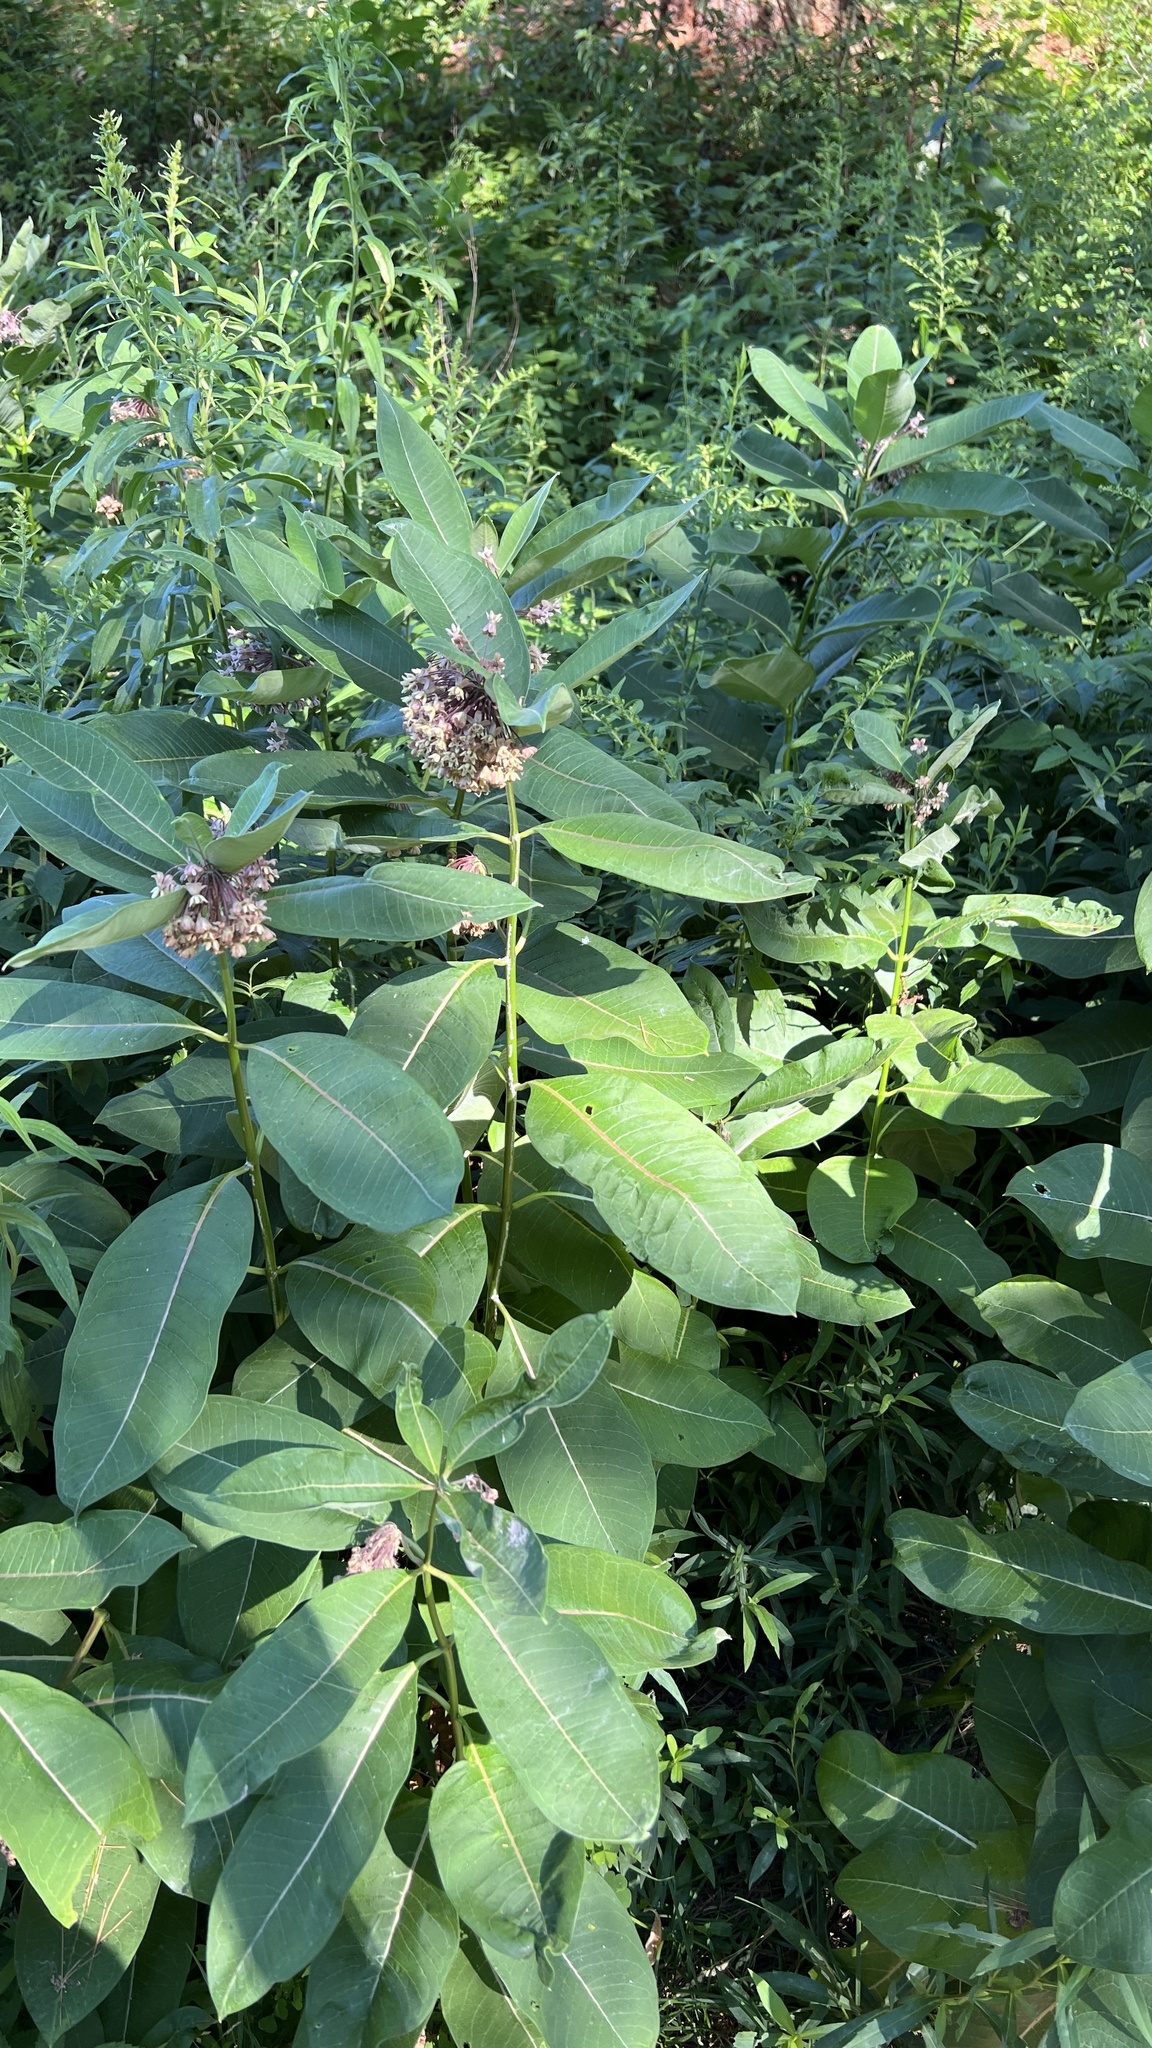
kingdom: Plantae
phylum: Tracheophyta
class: Magnoliopsida
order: Gentianales
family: Apocynaceae
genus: Asclepias
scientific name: Asclepias syriaca
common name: Common milkweed
